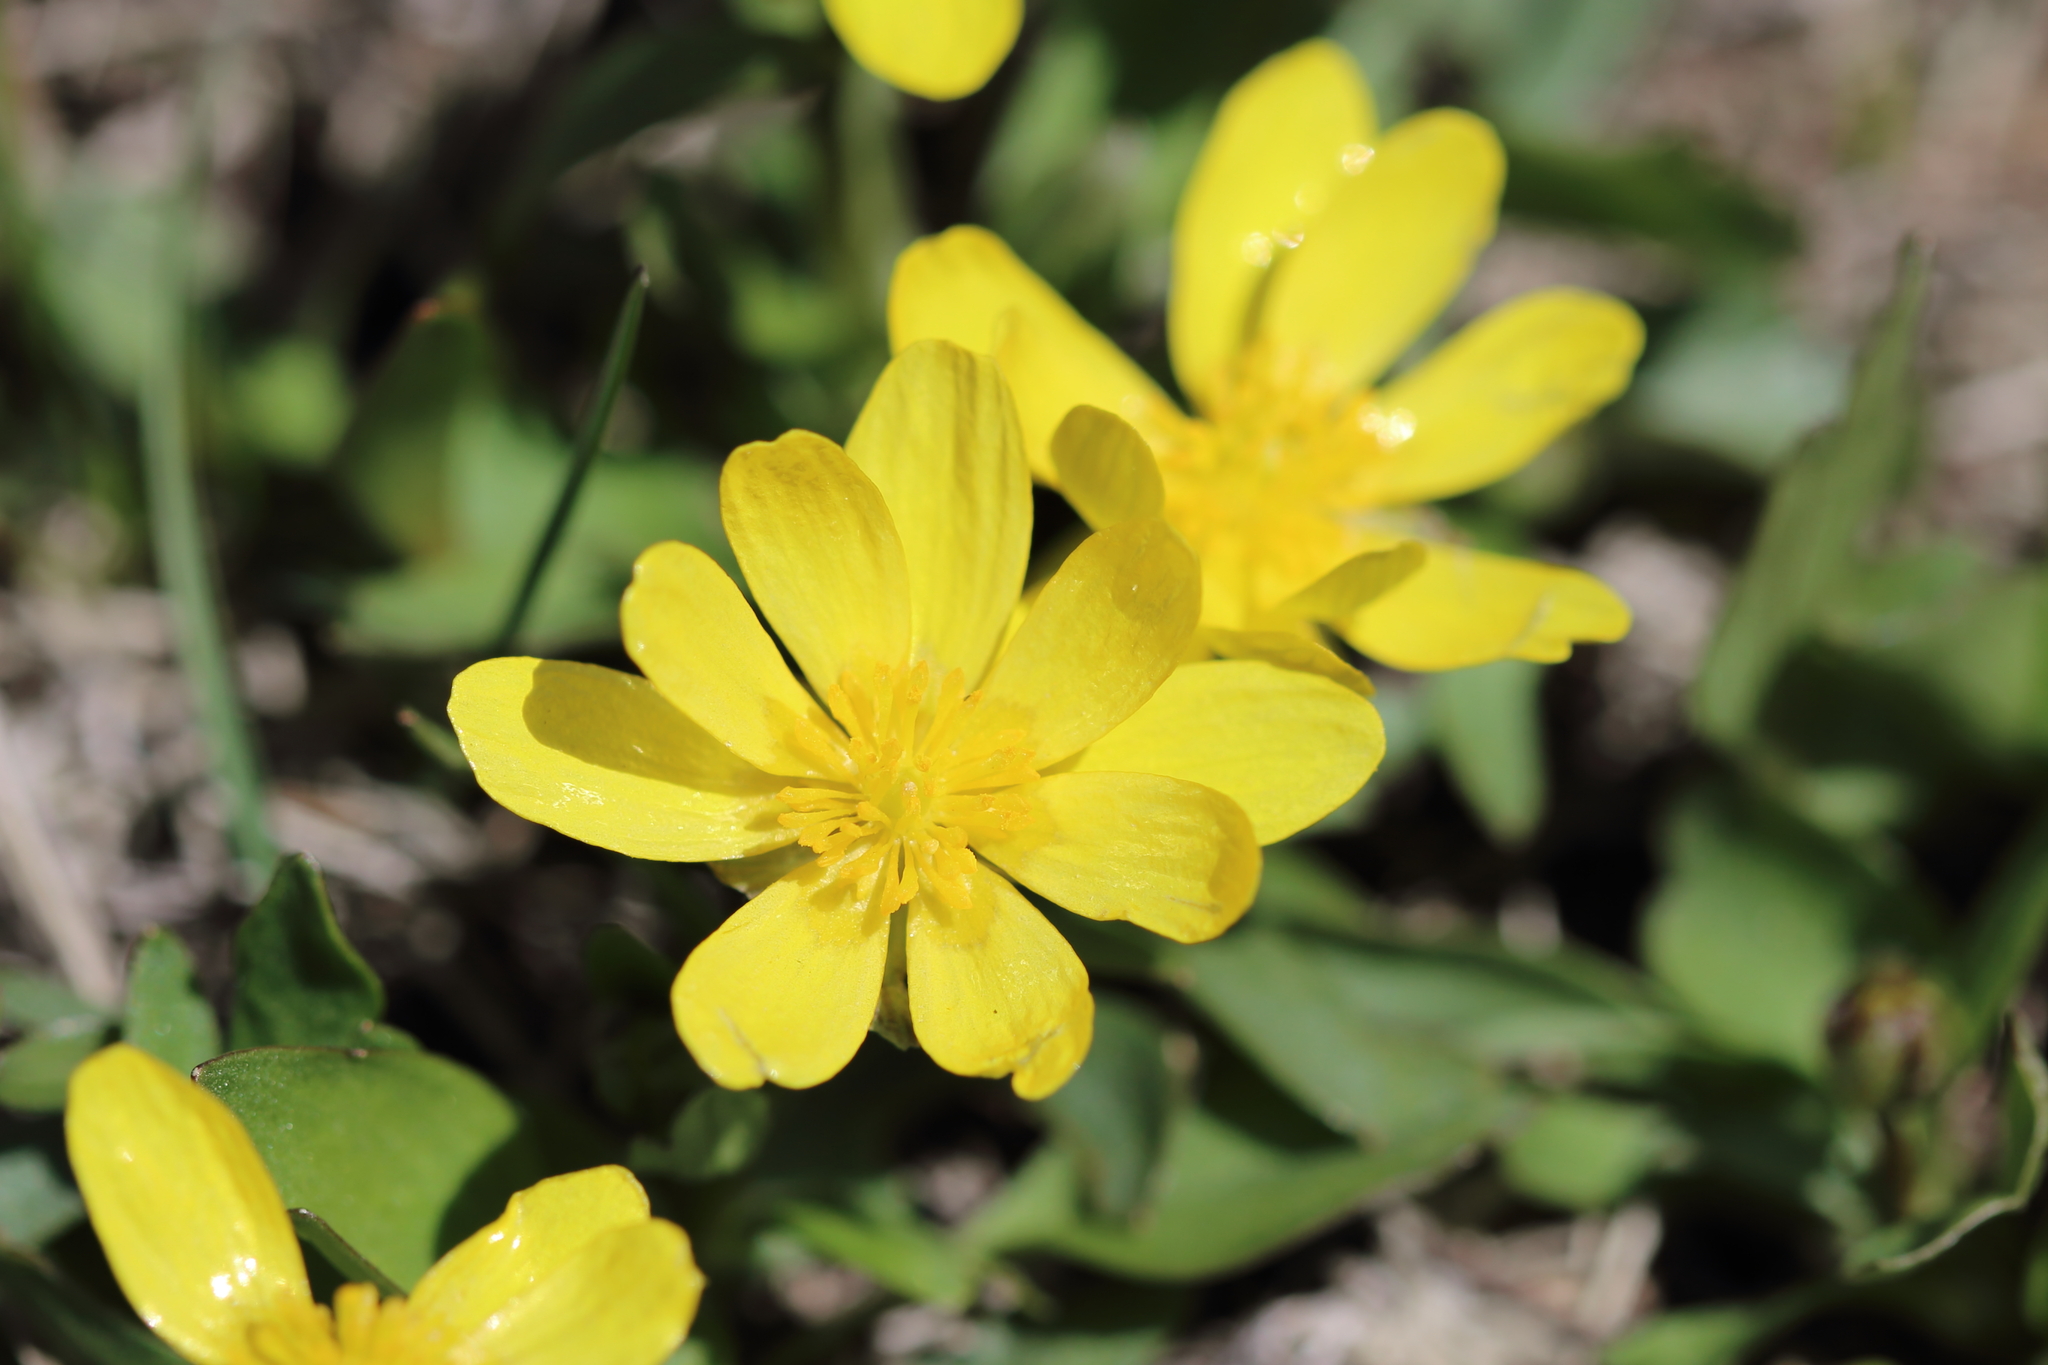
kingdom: Plantae
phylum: Tracheophyta
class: Magnoliopsida
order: Ranunculales
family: Ranunculaceae
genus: Ranunculus
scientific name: Ranunculus glaberrimus
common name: Sagebrush buttercup
